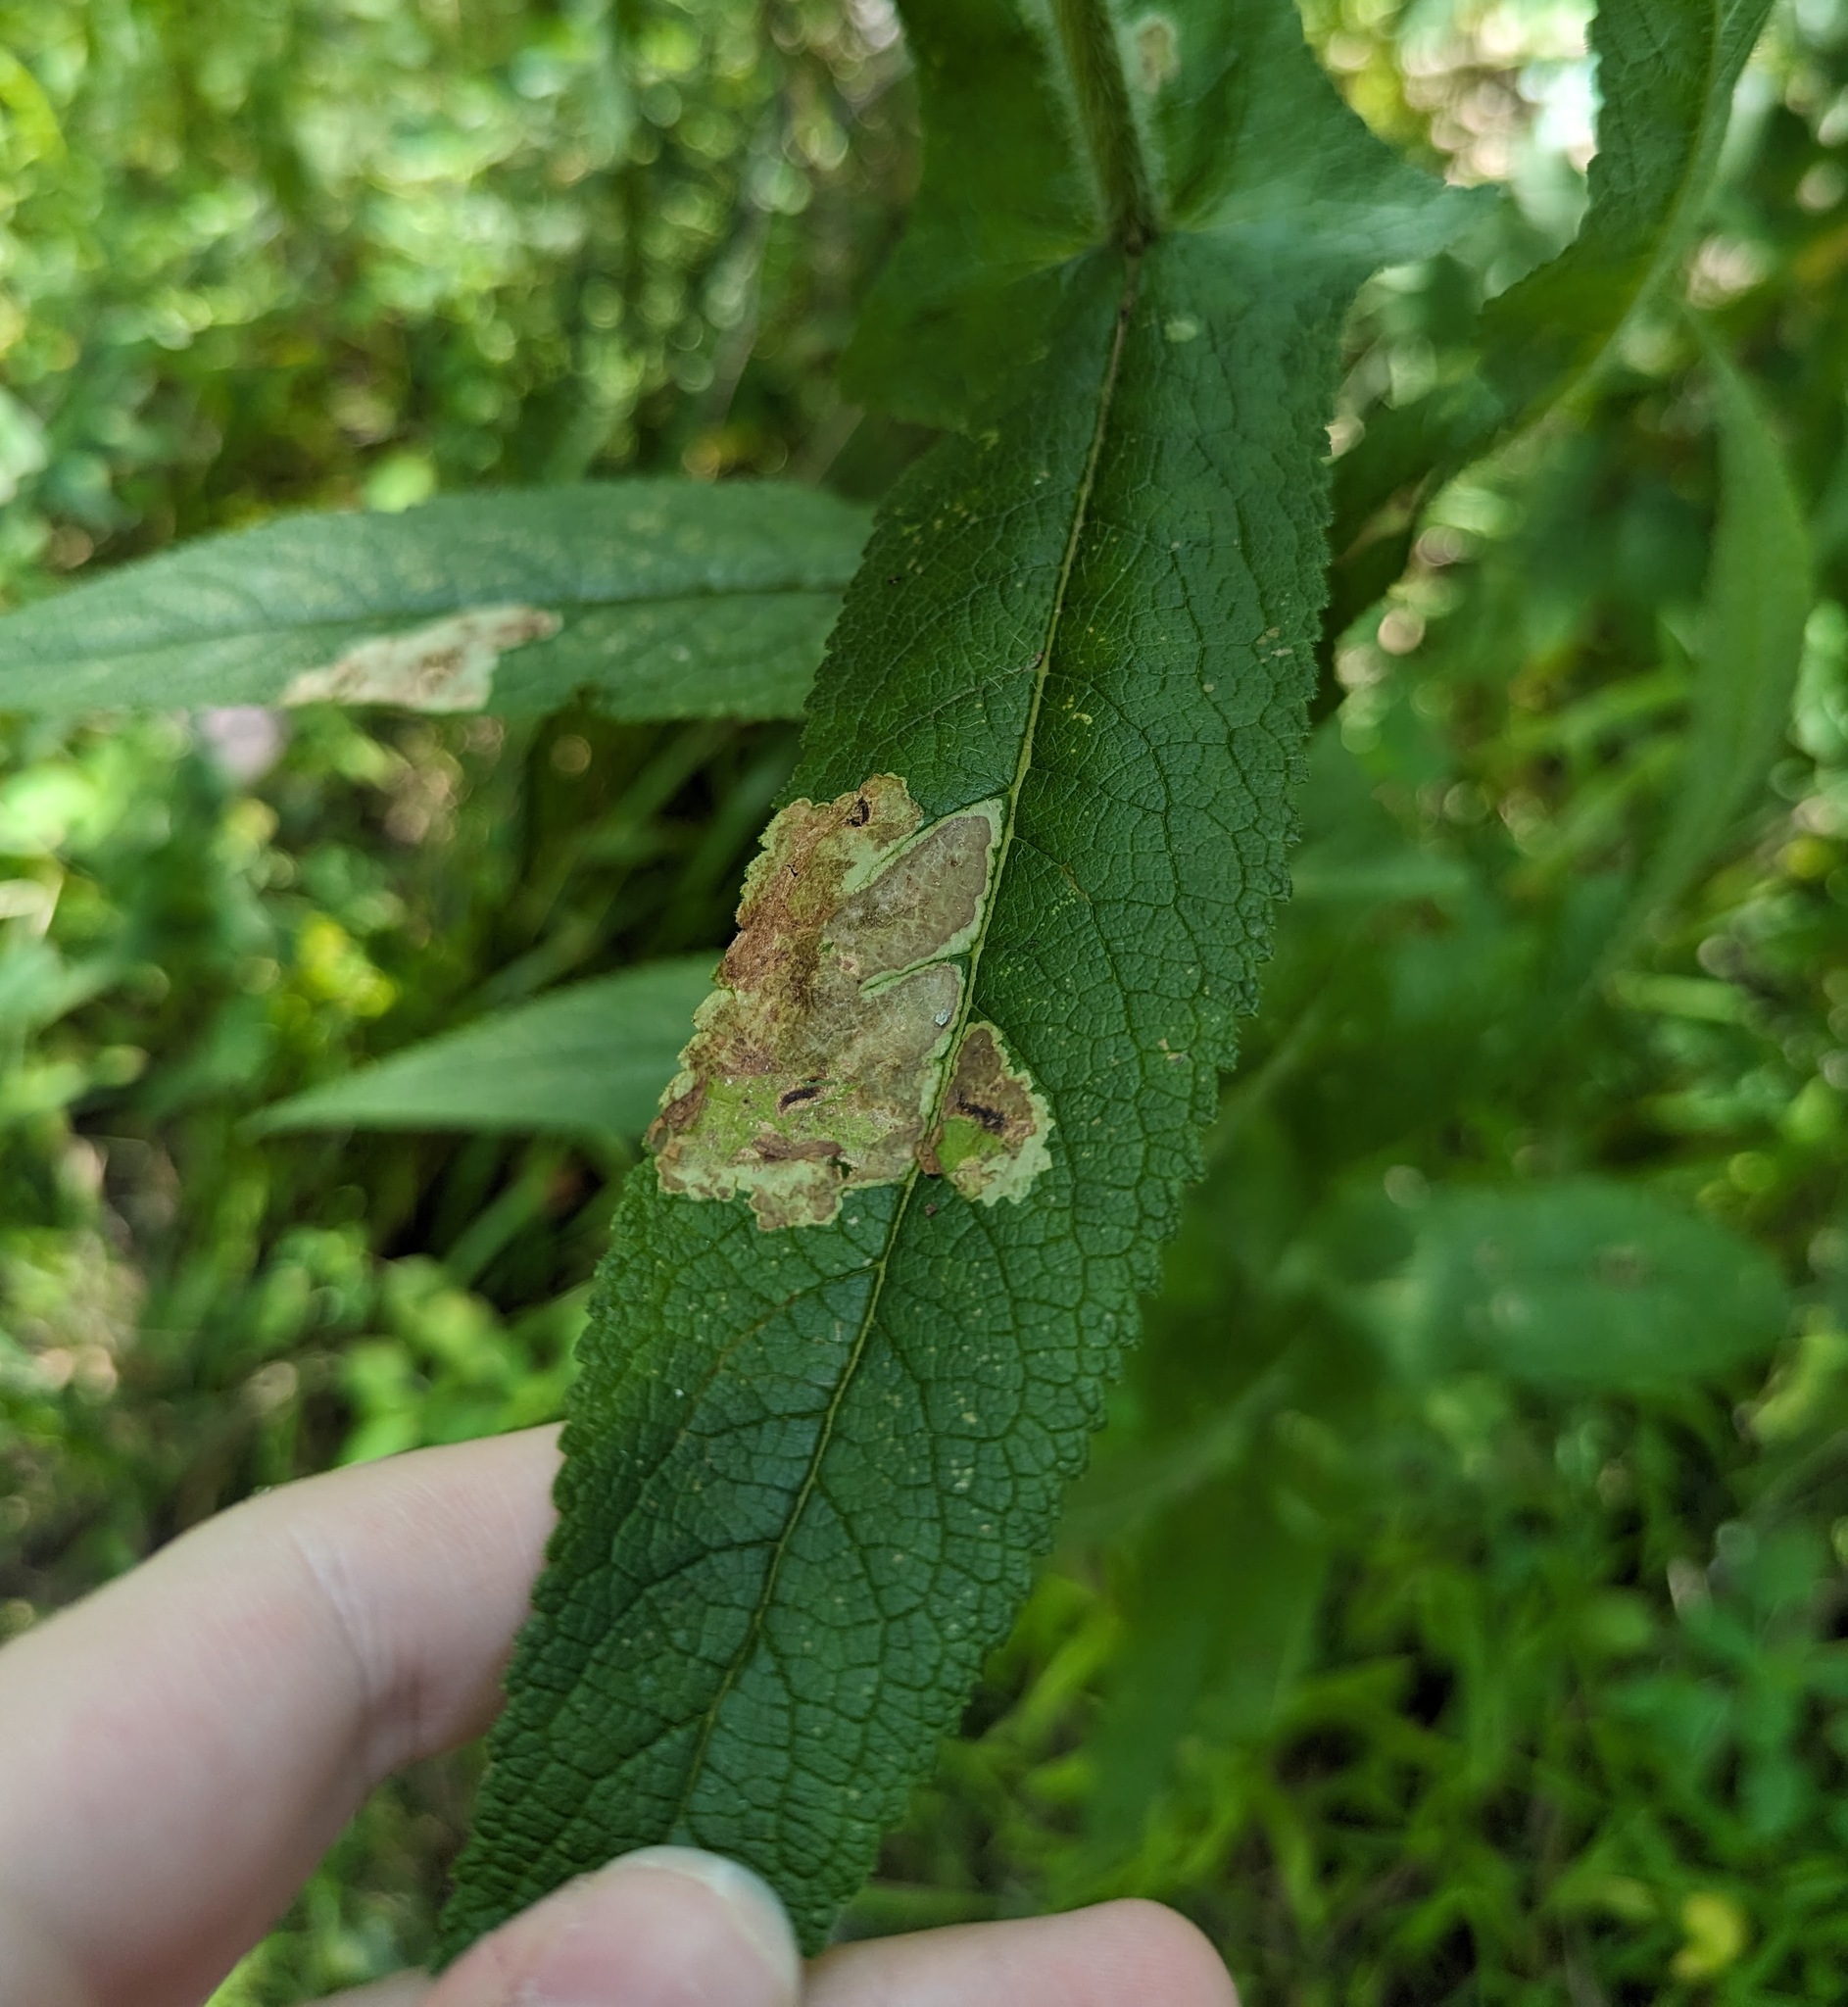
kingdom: Animalia
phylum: Arthropoda
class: Insecta
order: Diptera
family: Agromyzidae
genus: Calycomyza
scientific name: Calycomyza flavinotum
